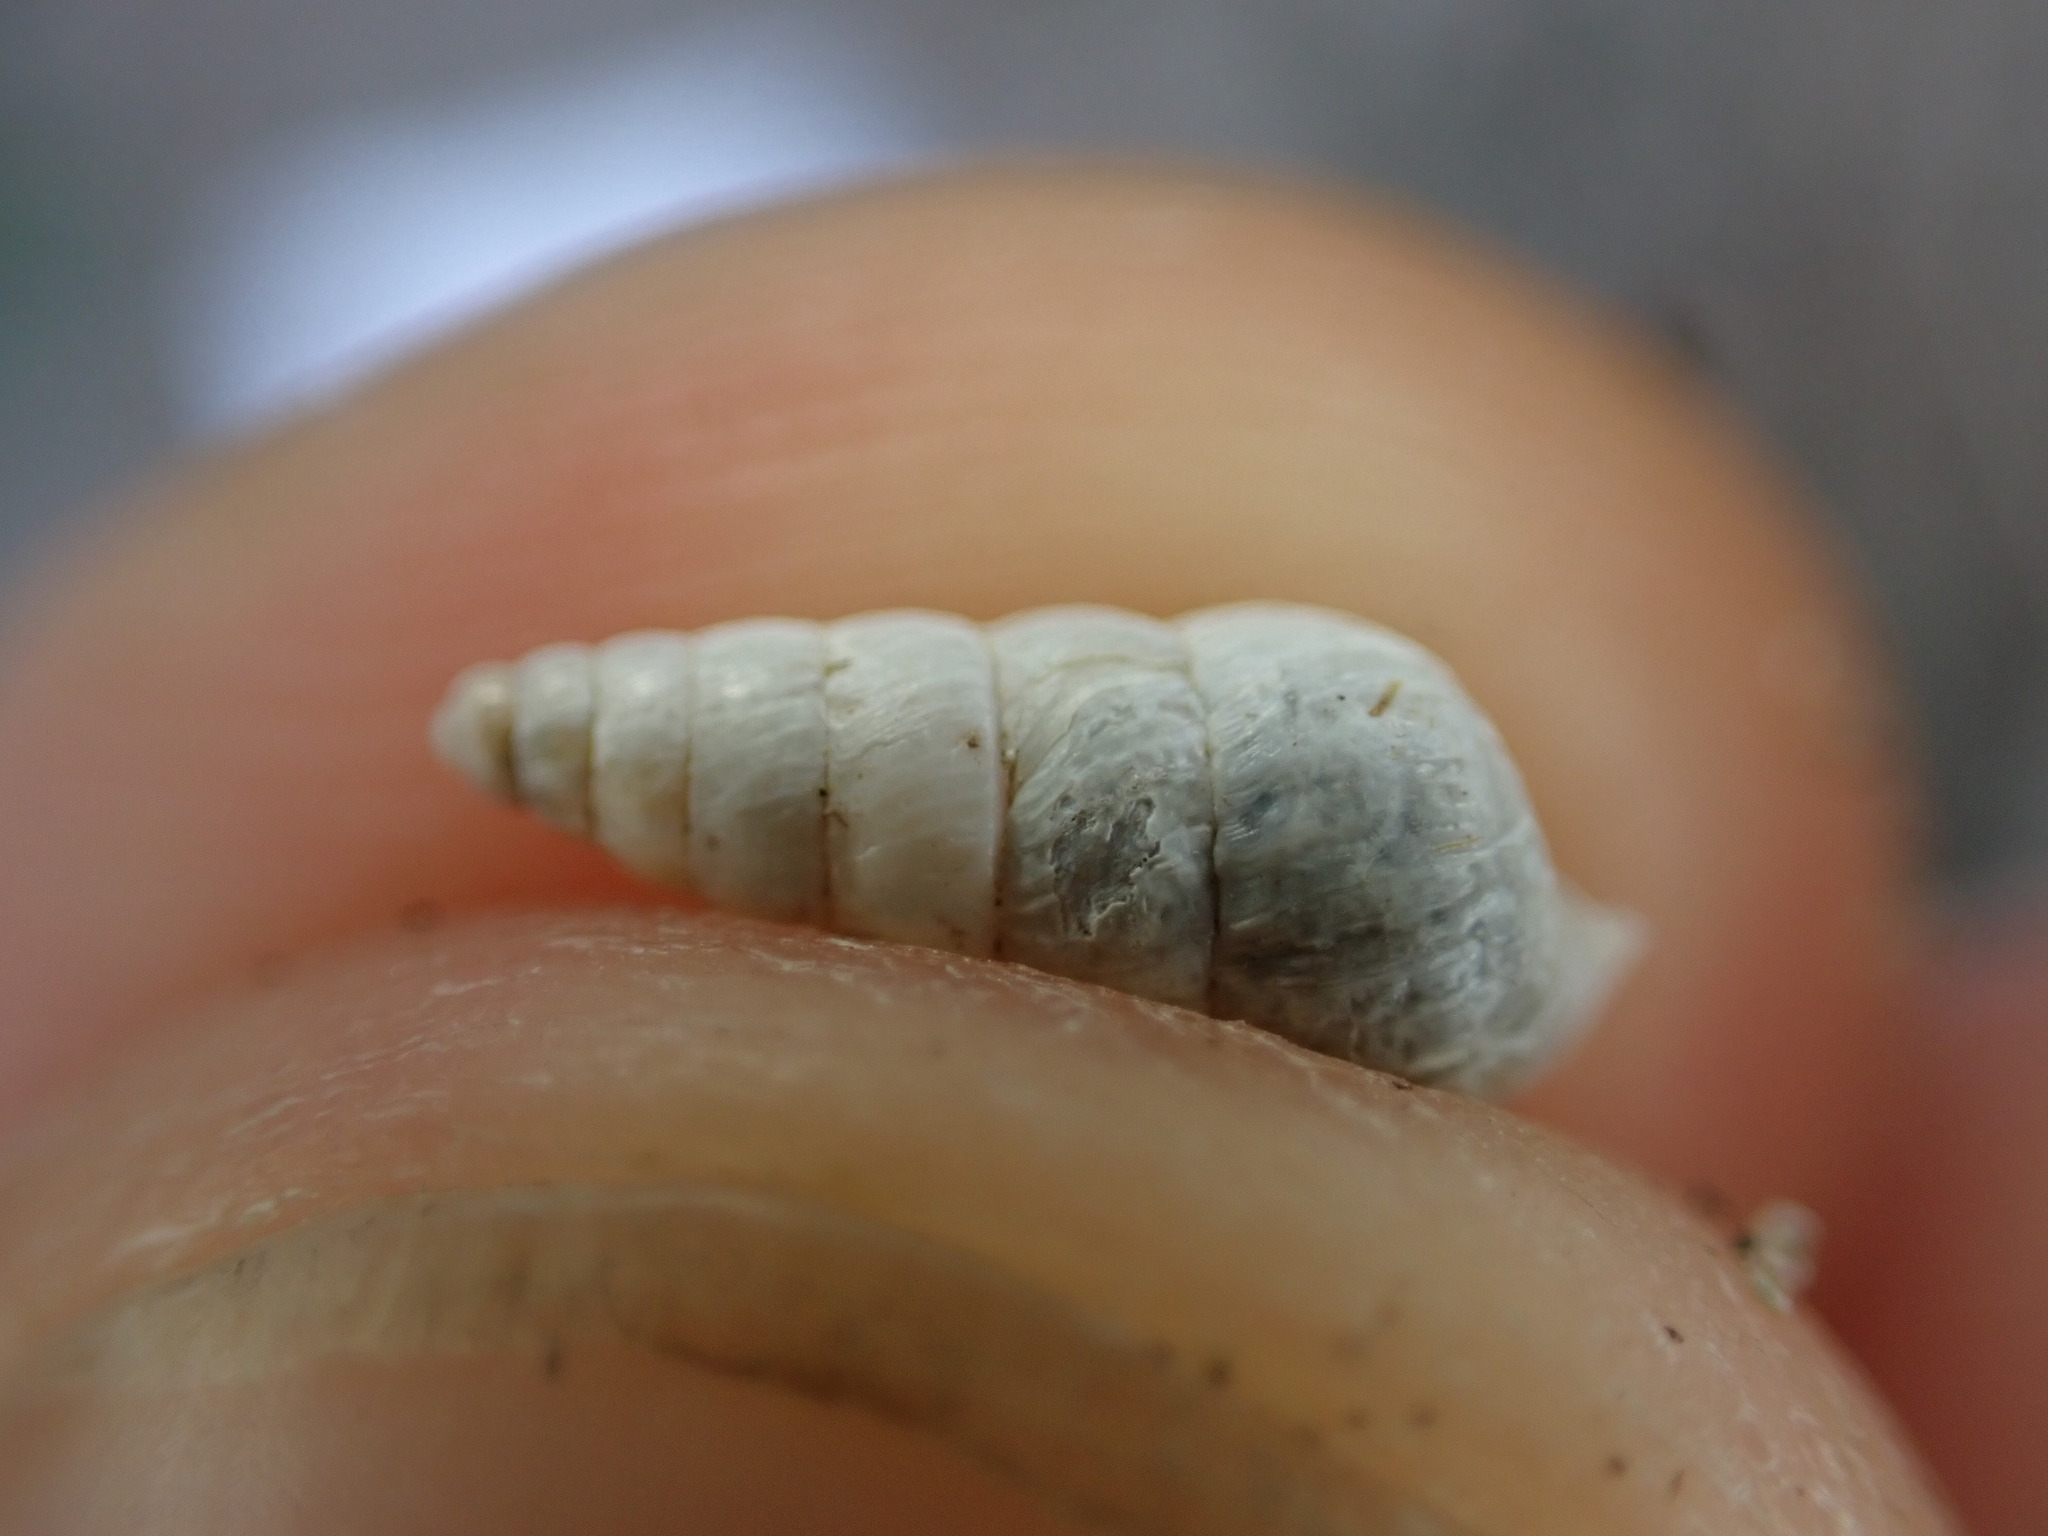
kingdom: Animalia
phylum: Mollusca
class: Gastropoda
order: Stylommatophora
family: Geomitridae
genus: Cochlicella
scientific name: Cochlicella acuta
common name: Pointed snail
